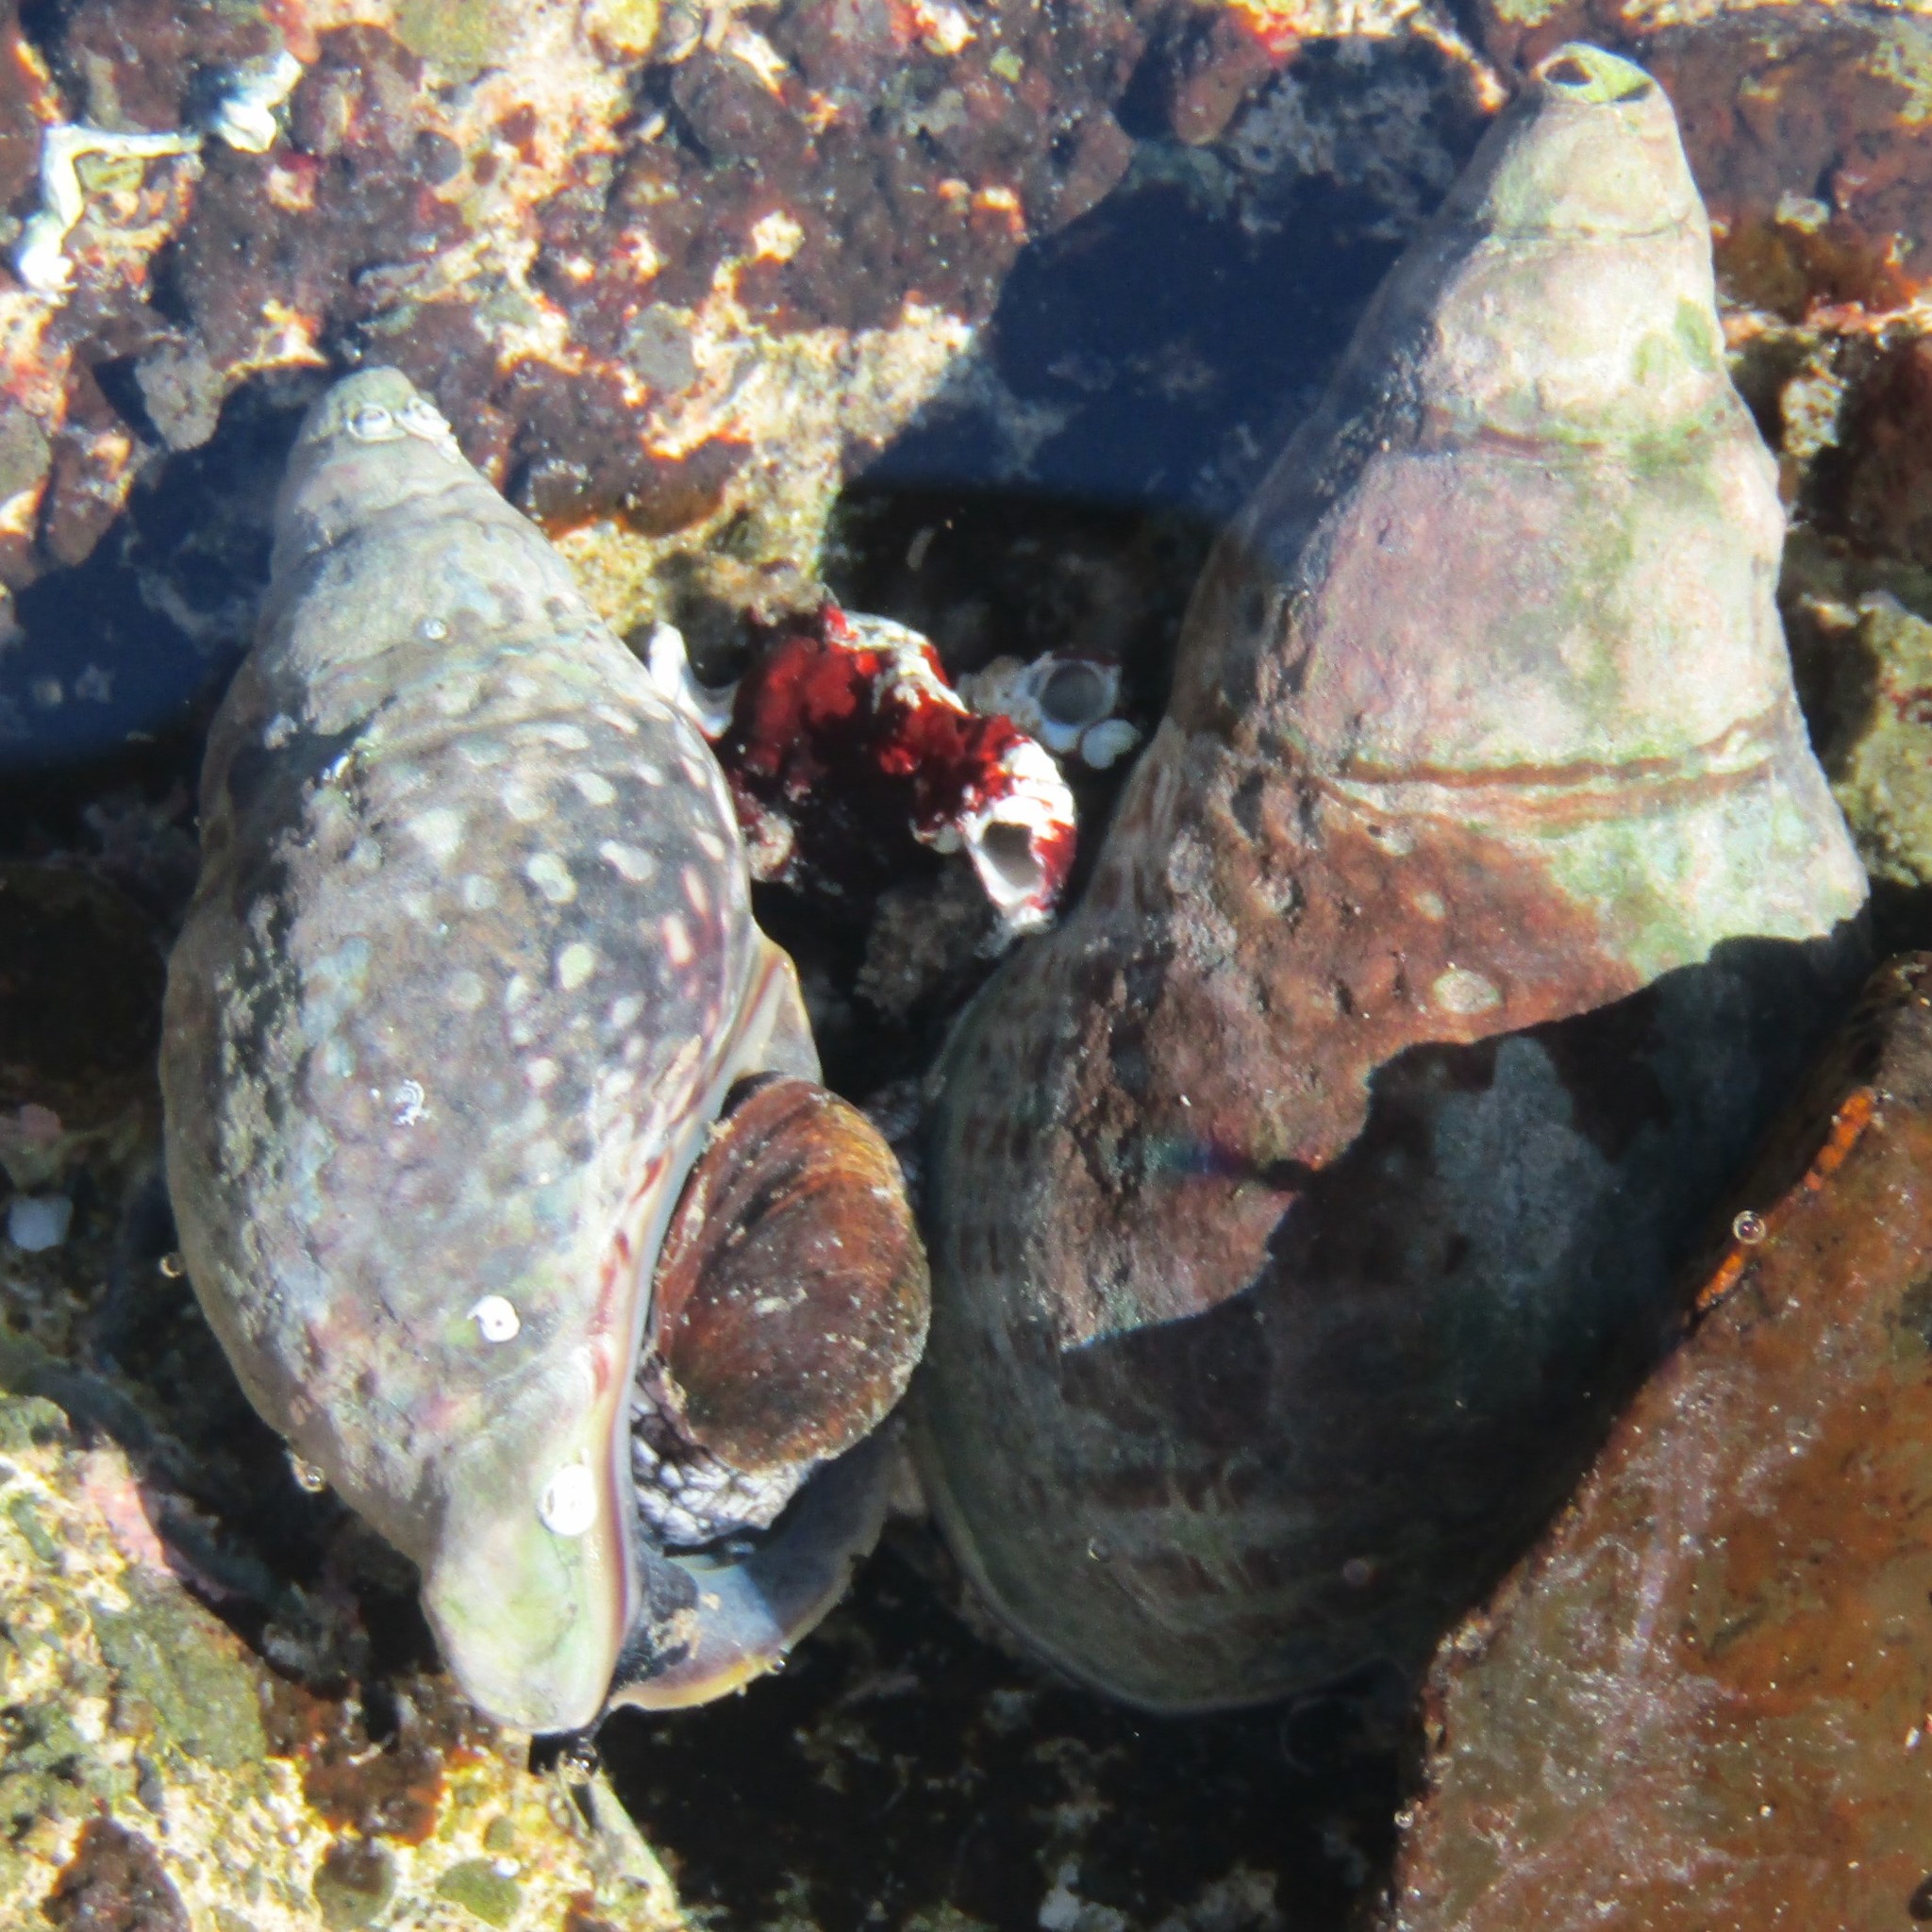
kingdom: Animalia
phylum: Mollusca
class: Gastropoda
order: Neogastropoda
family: Cominellidae
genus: Cominella
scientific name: Cominella maculosa
